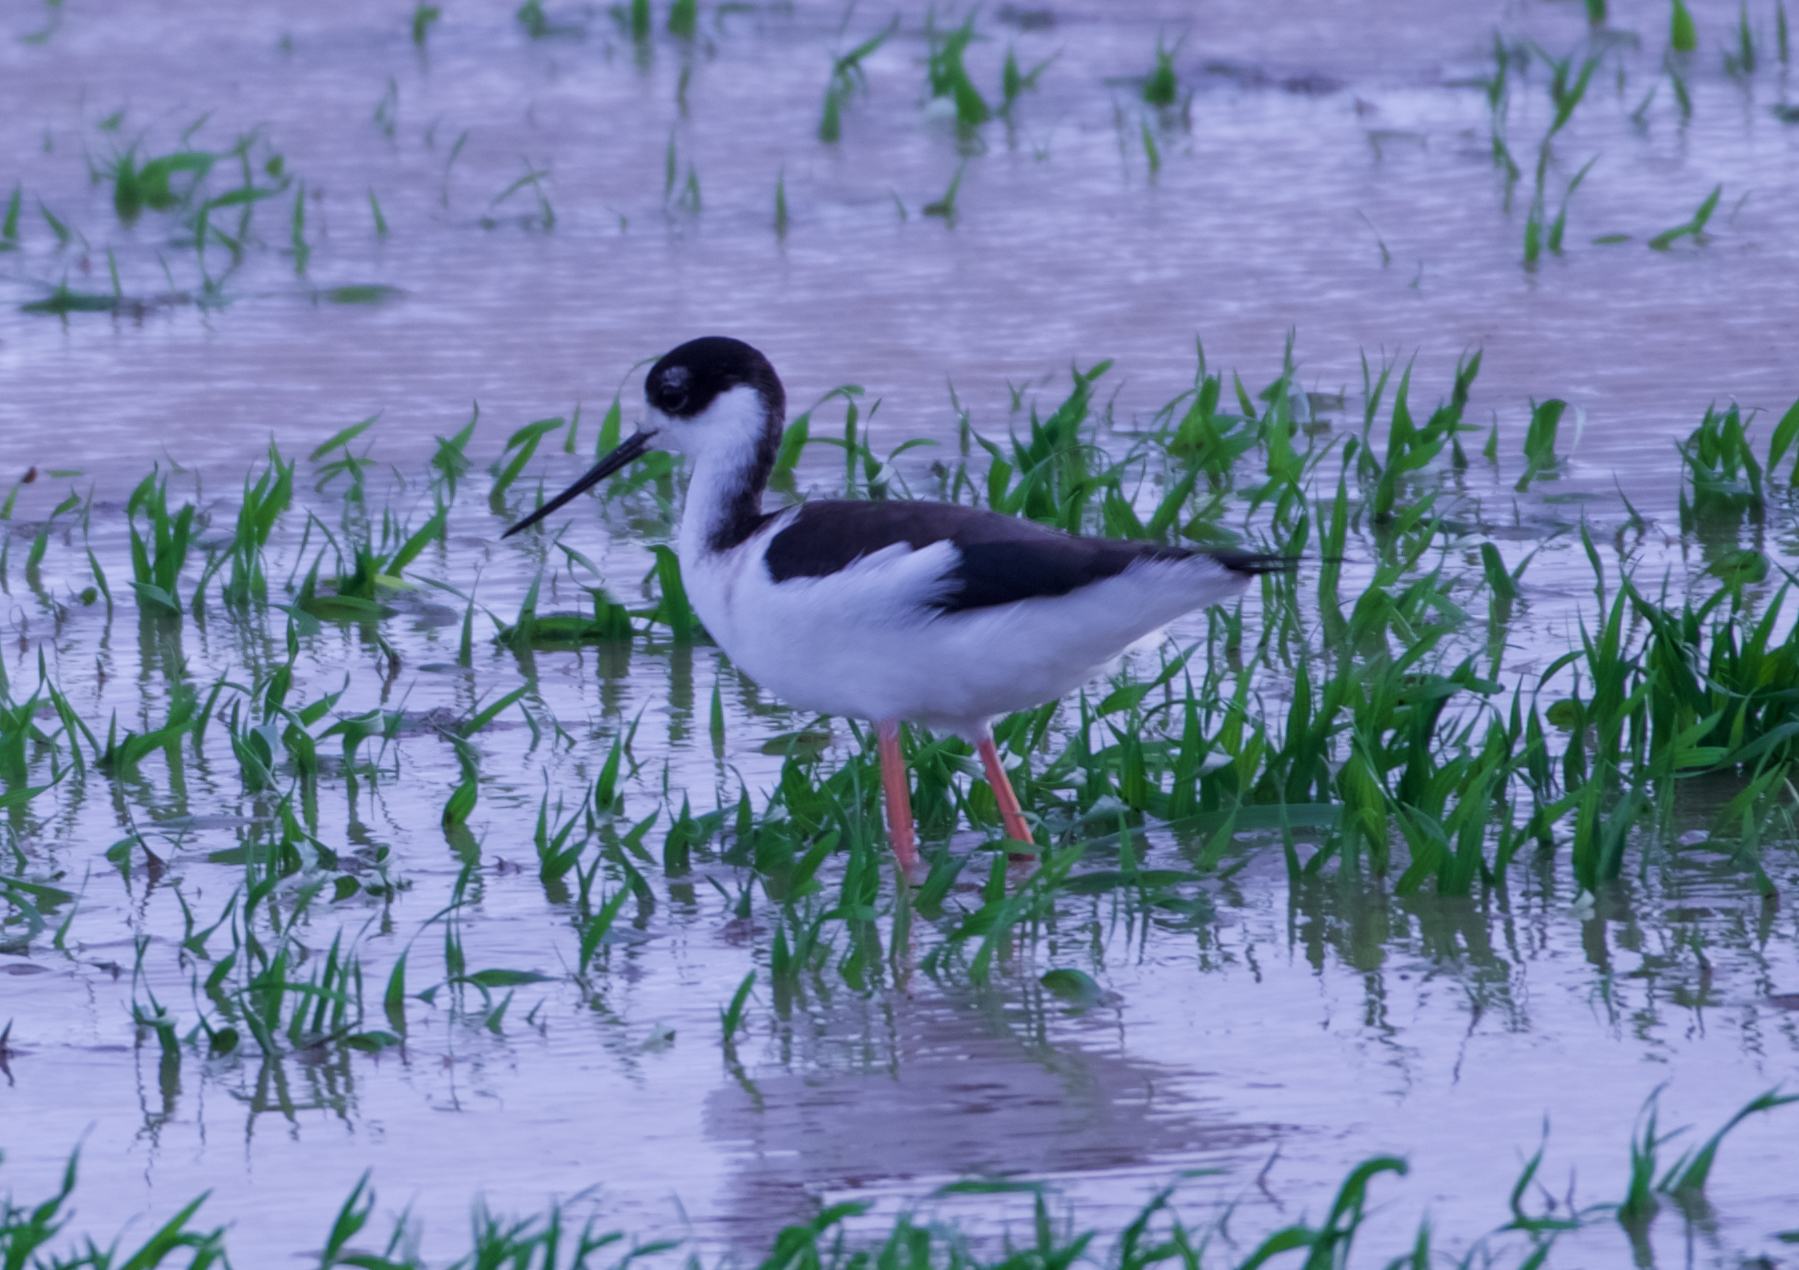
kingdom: Animalia
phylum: Chordata
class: Aves
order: Charadriiformes
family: Recurvirostridae
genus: Himantopus
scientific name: Himantopus mexicanus
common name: Black-necked stilt
